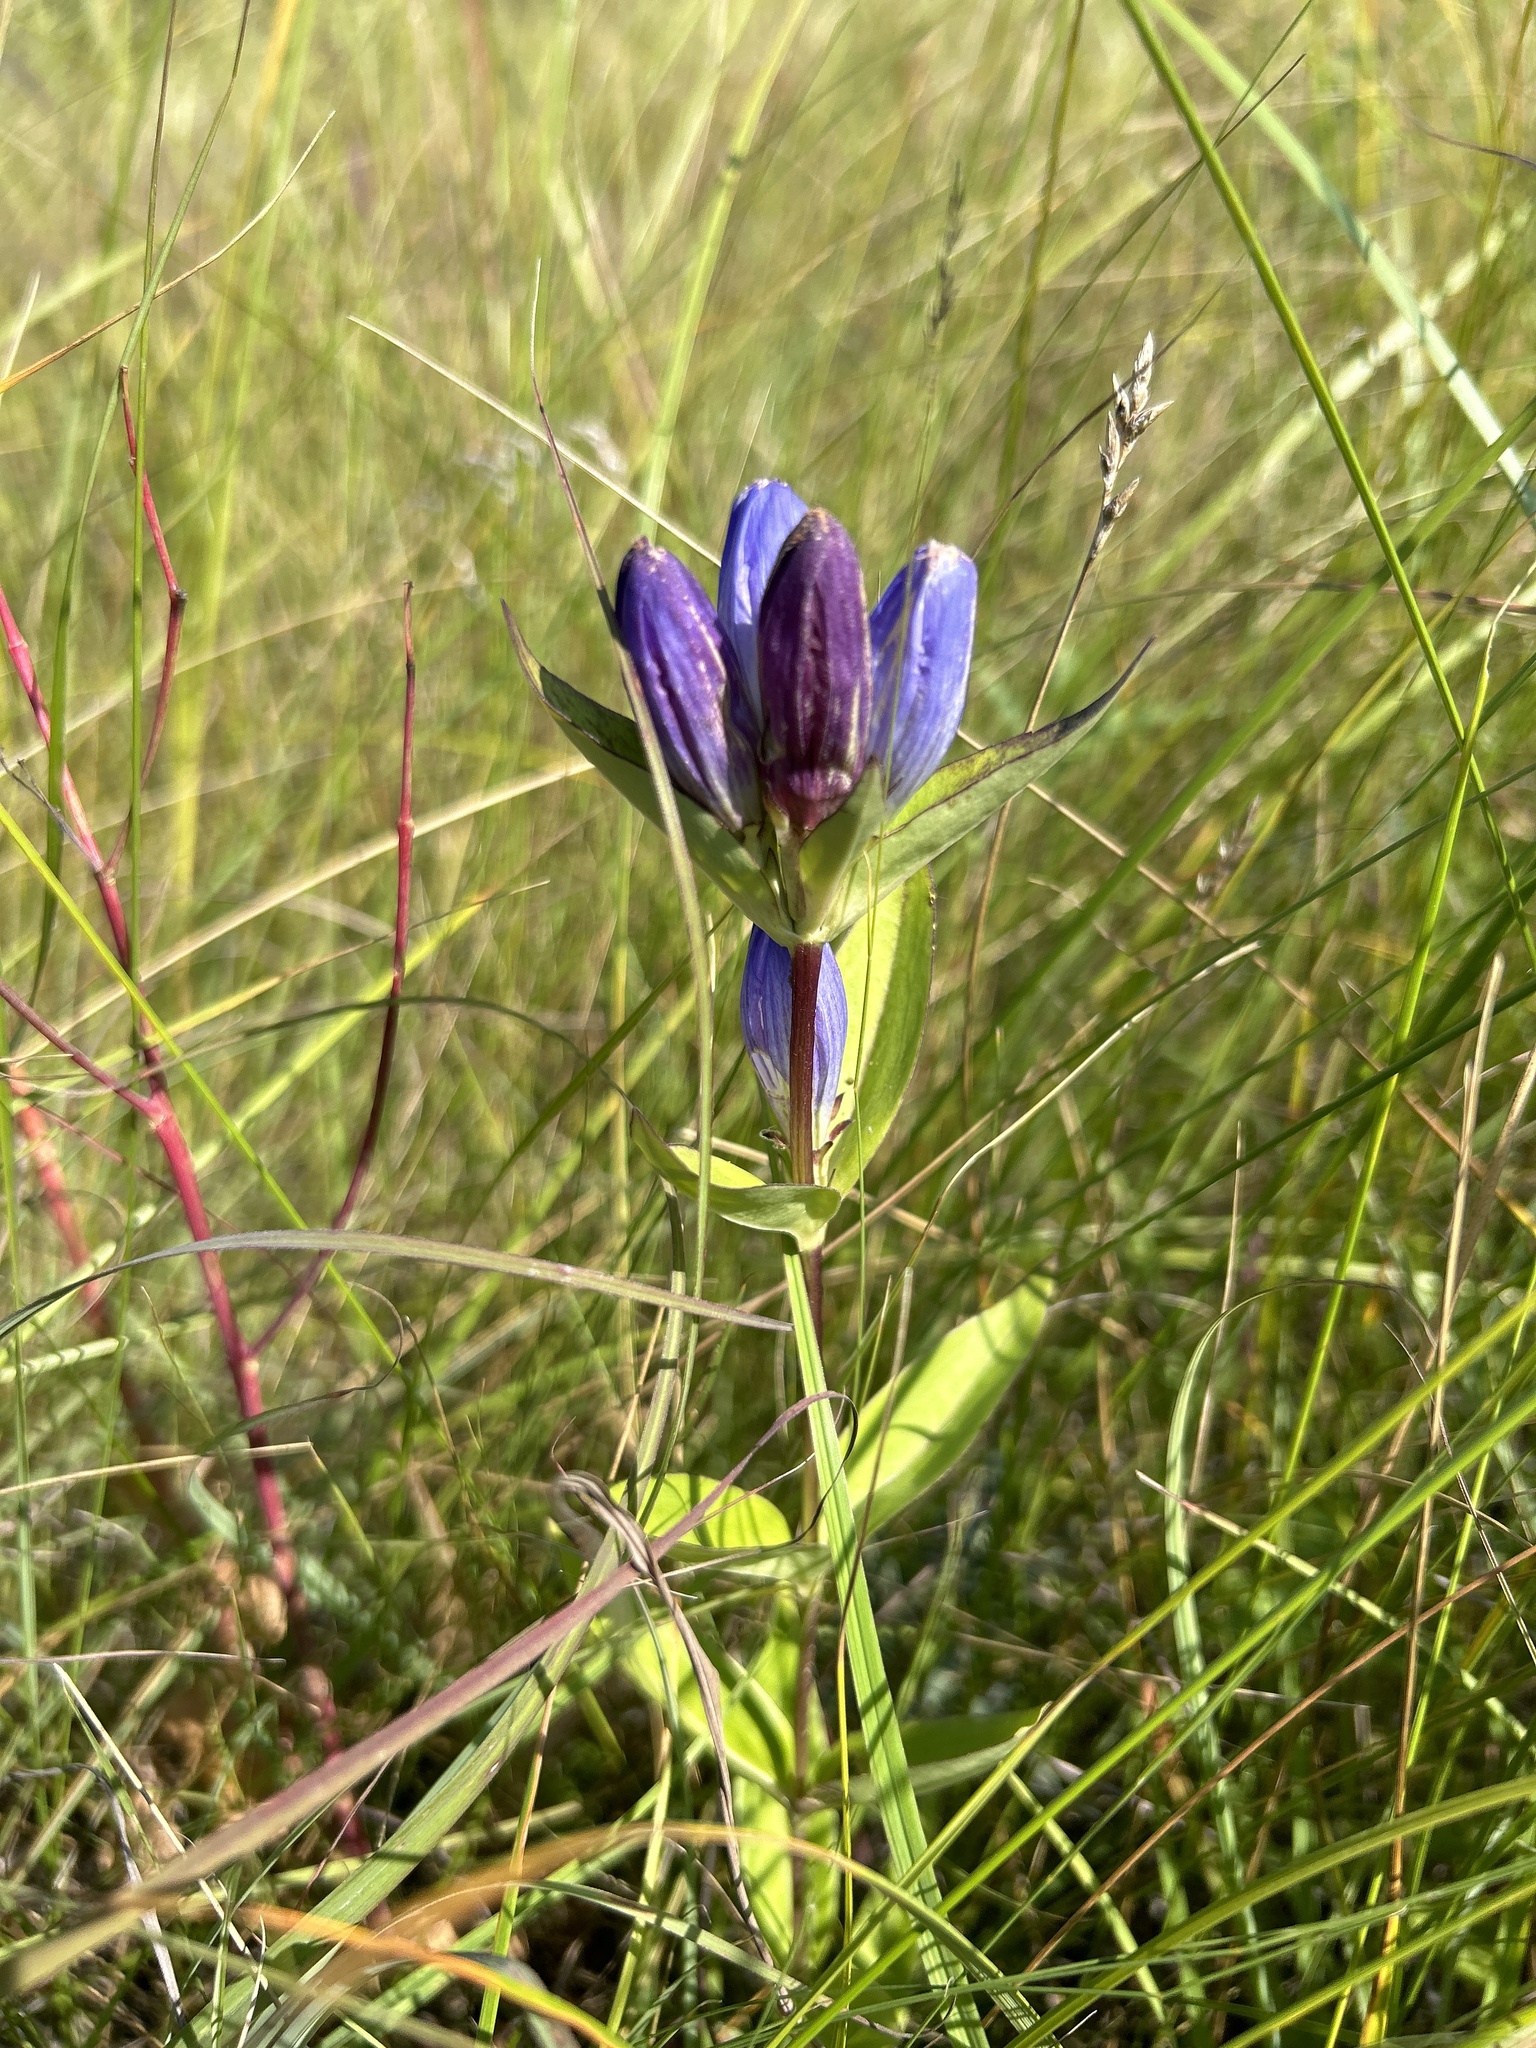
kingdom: Plantae
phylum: Tracheophyta
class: Magnoliopsida
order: Gentianales
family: Gentianaceae
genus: Gentiana
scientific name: Gentiana andrewsii
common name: Bottle gentian
